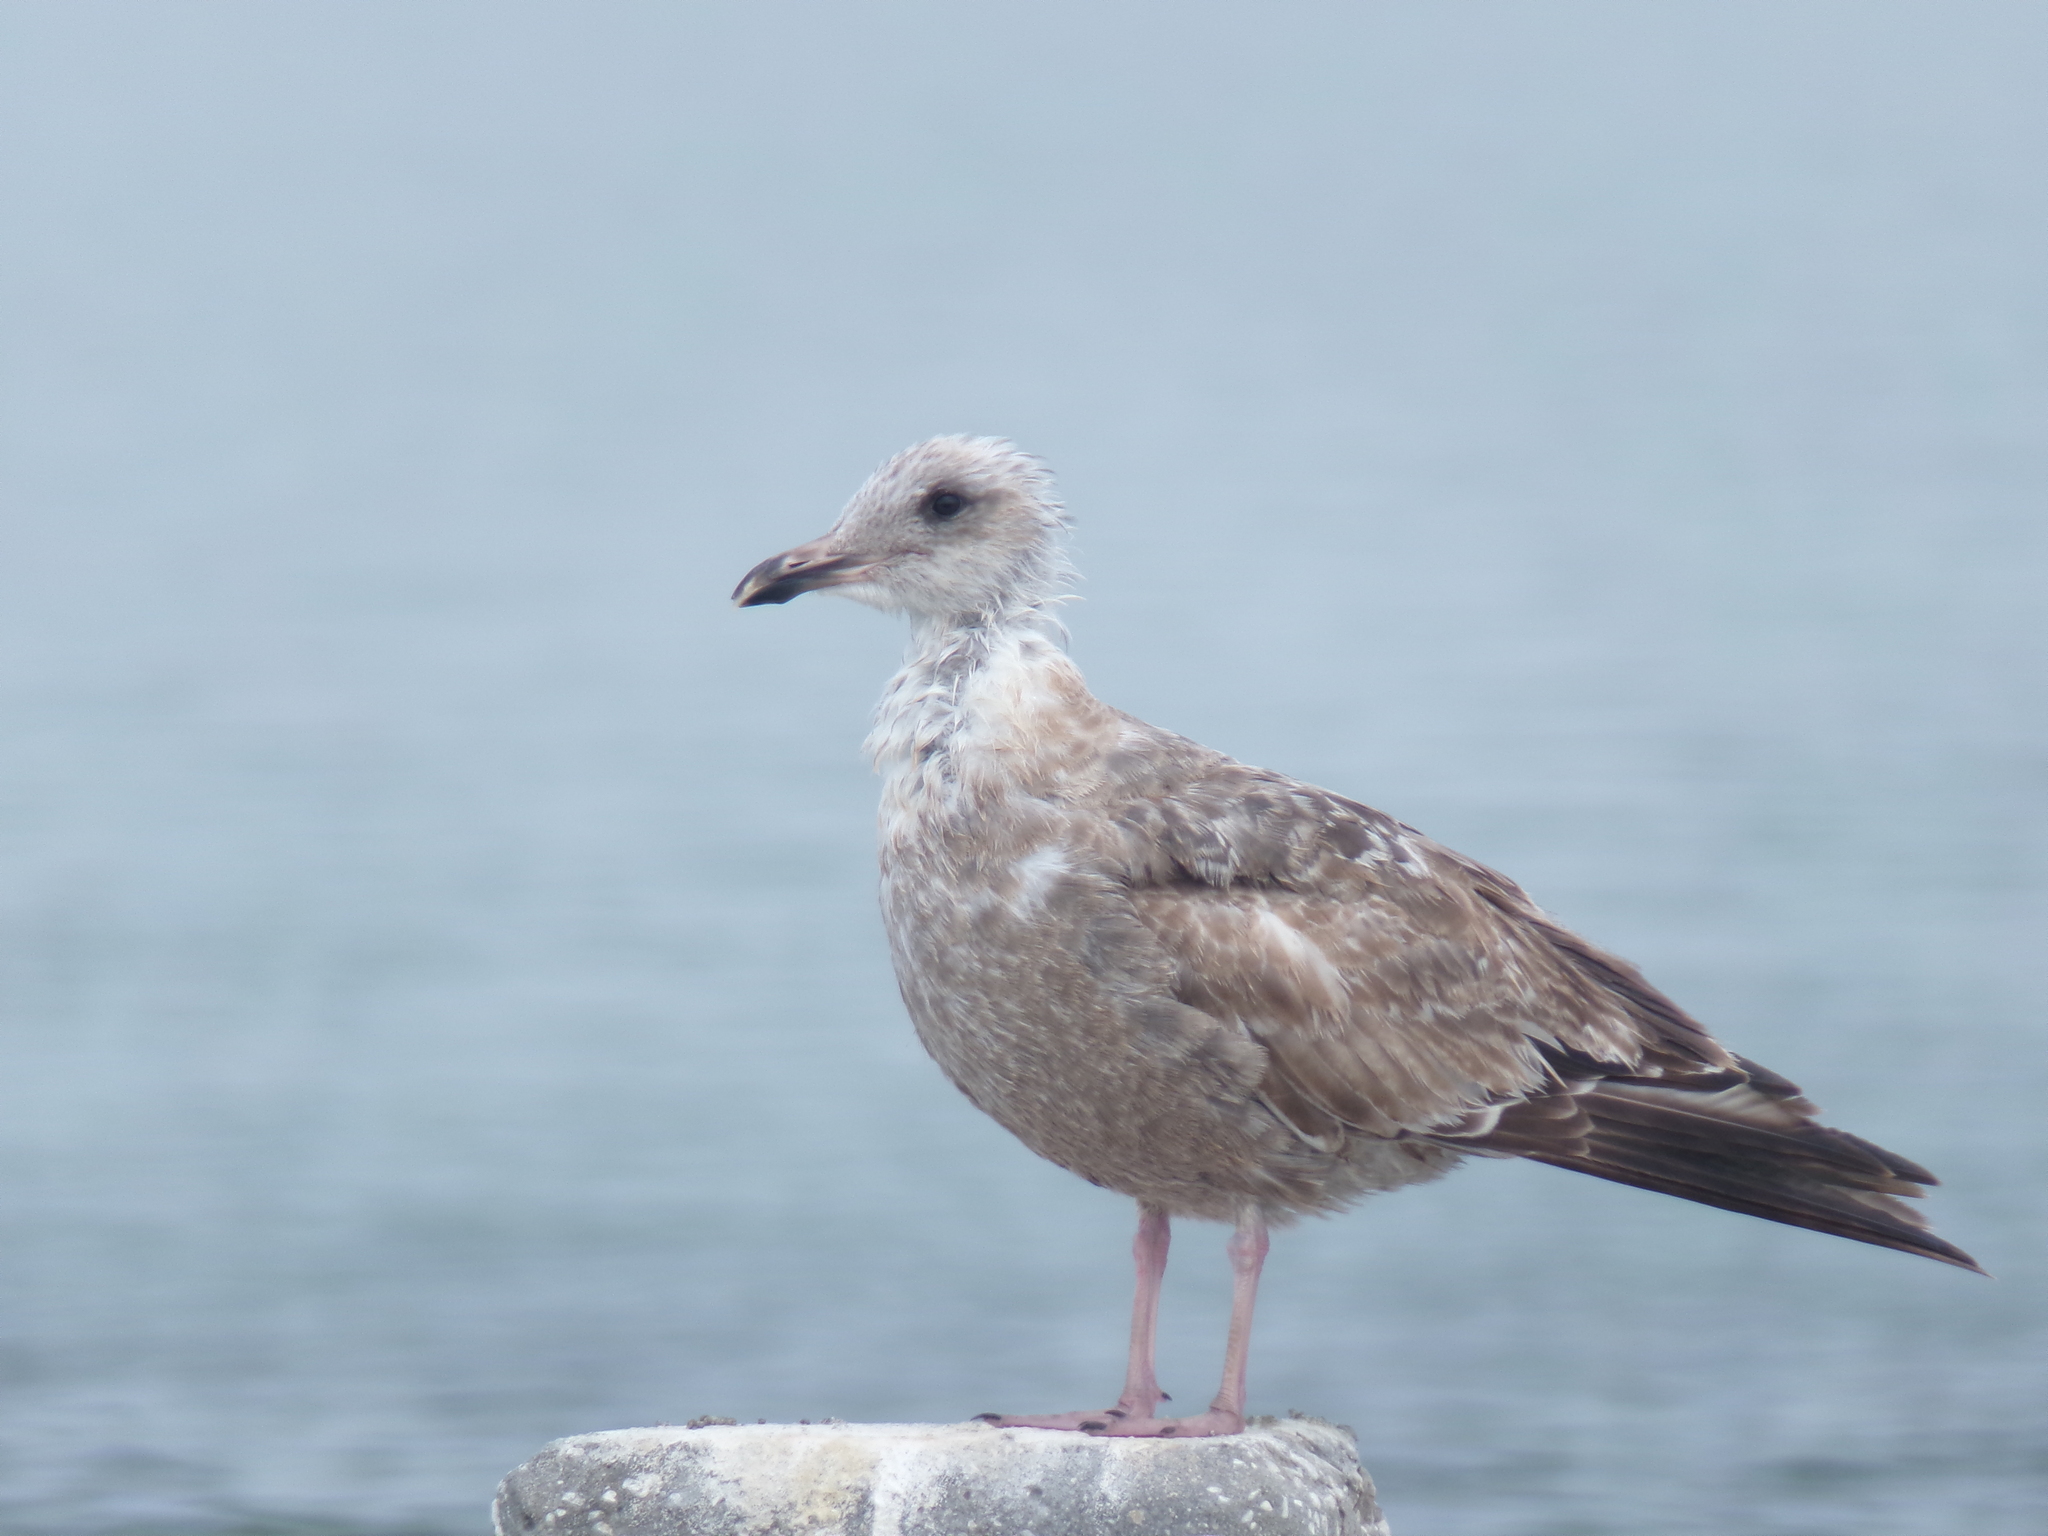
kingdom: Animalia
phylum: Chordata
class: Aves
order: Charadriiformes
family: Laridae
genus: Larus
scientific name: Larus smithsonianus
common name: American herring gull
